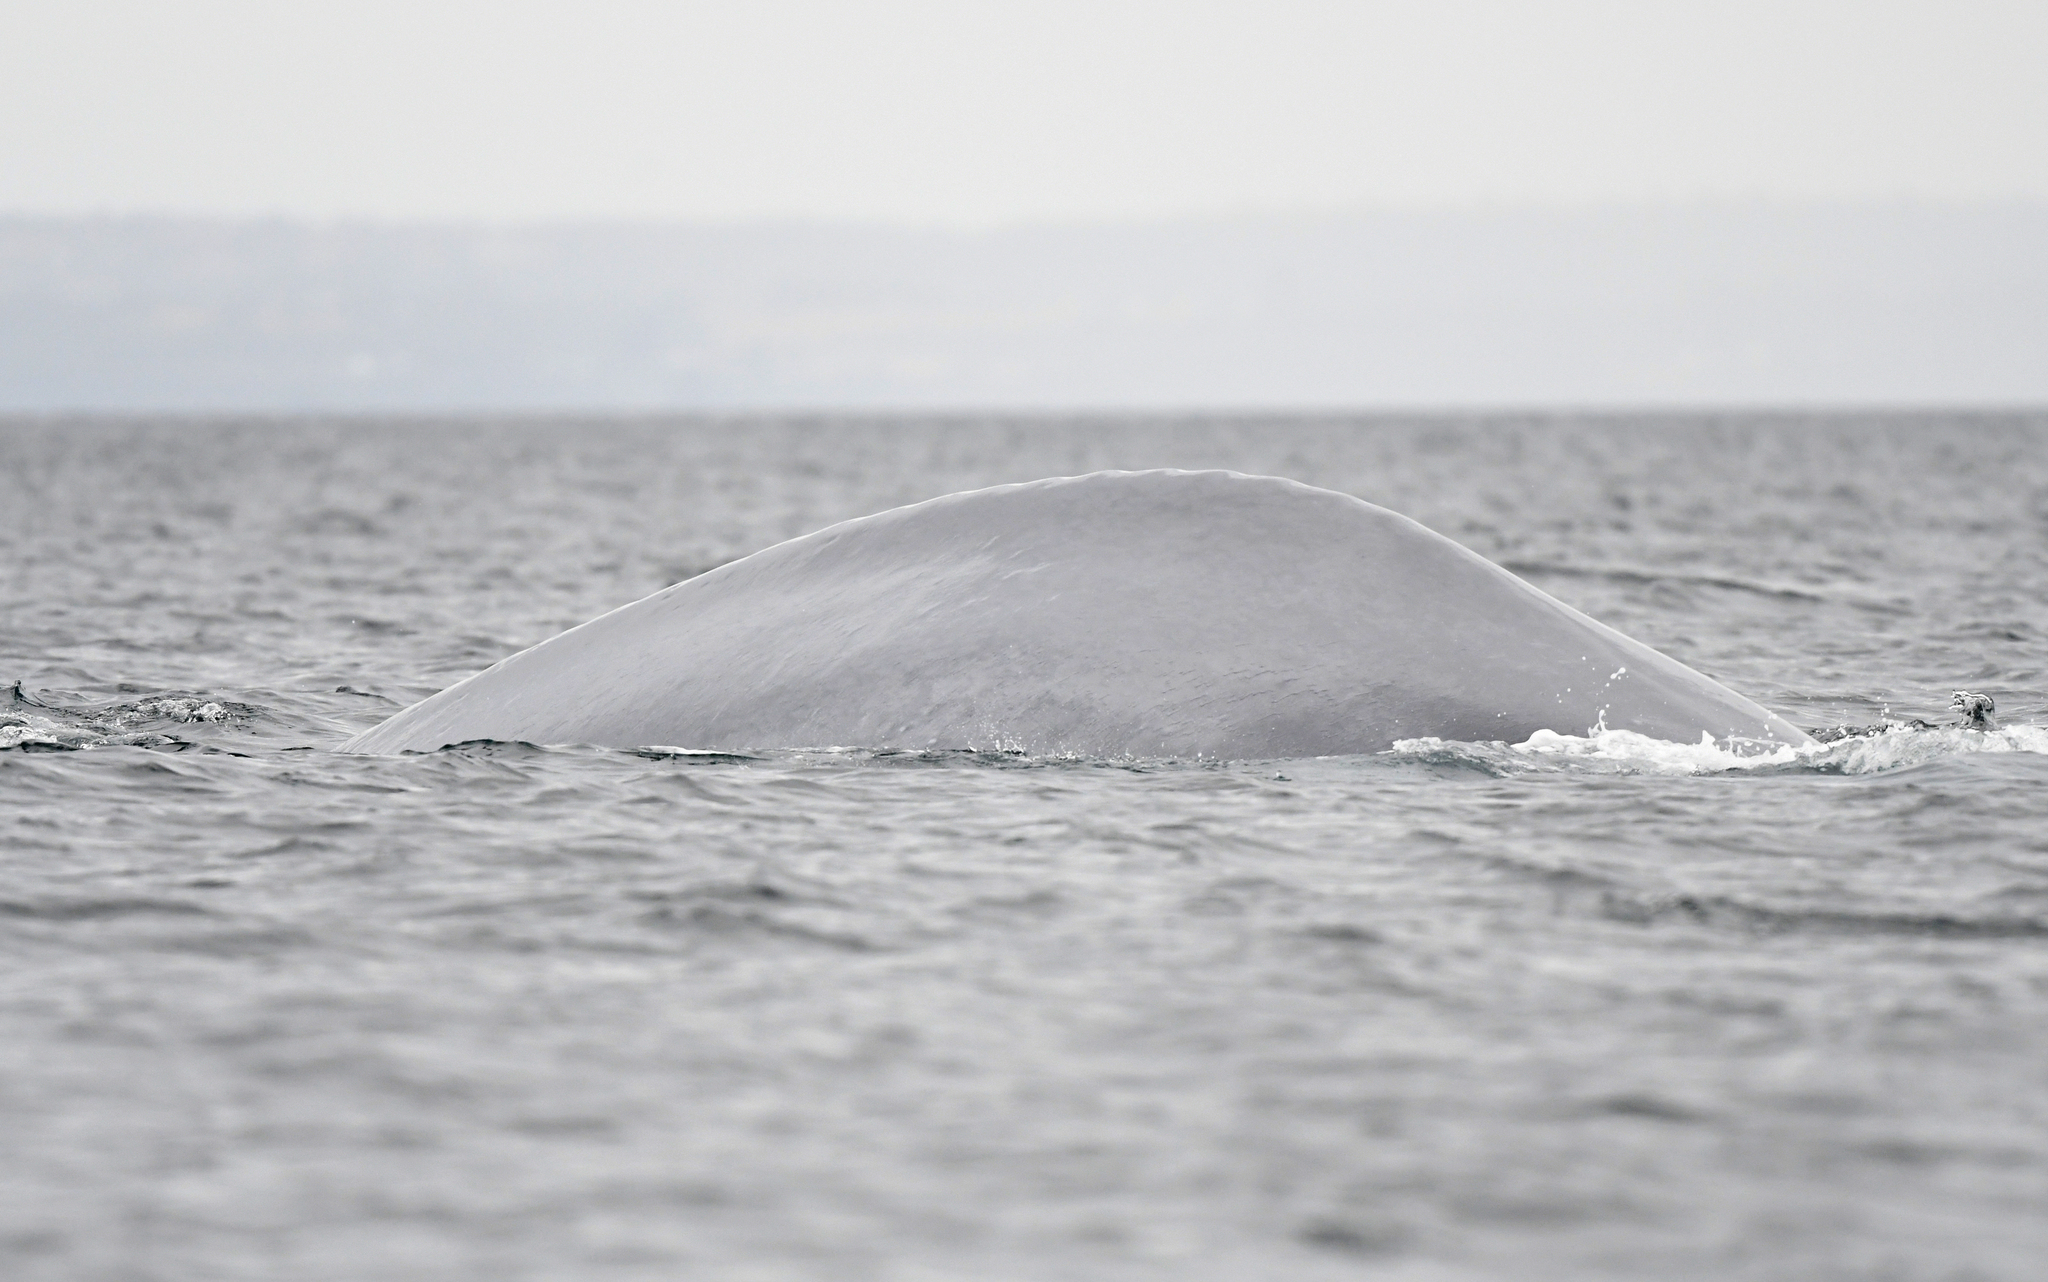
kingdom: Animalia
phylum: Chordata
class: Mammalia
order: Cetacea
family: Balaenopteridae
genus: Balaenoptera
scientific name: Balaenoptera musculus
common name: Blue whale
